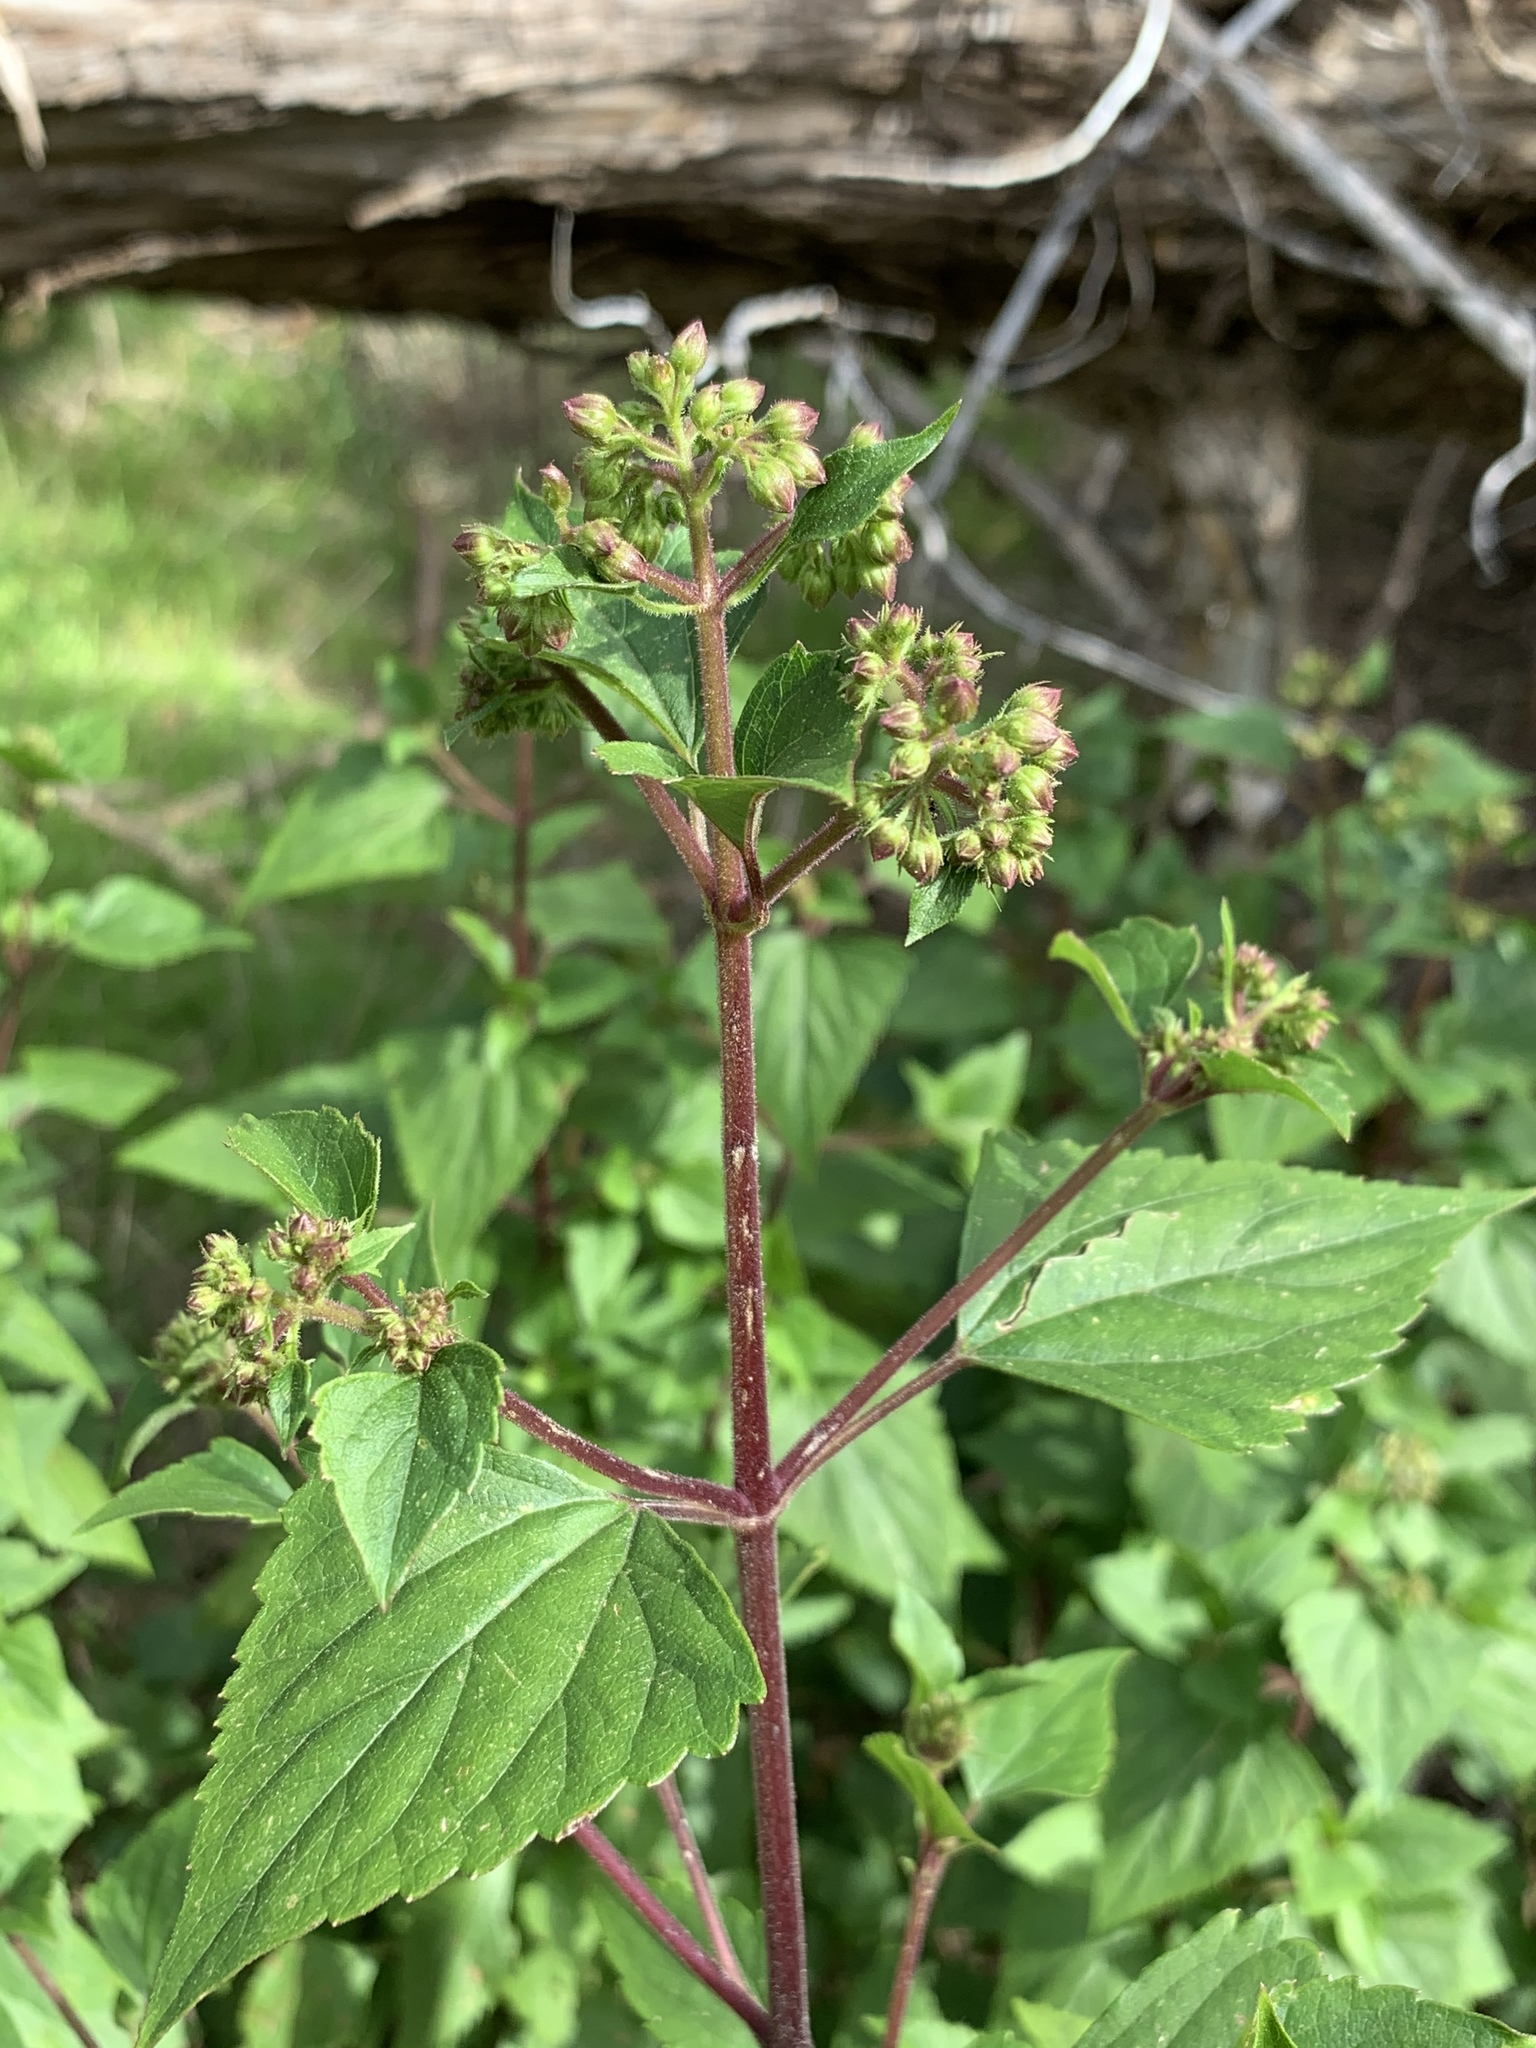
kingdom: Plantae
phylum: Tracheophyta
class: Magnoliopsida
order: Asterales
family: Asteraceae
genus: Ageratina
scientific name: Ageratina adenophora
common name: Sticky snakeroot
